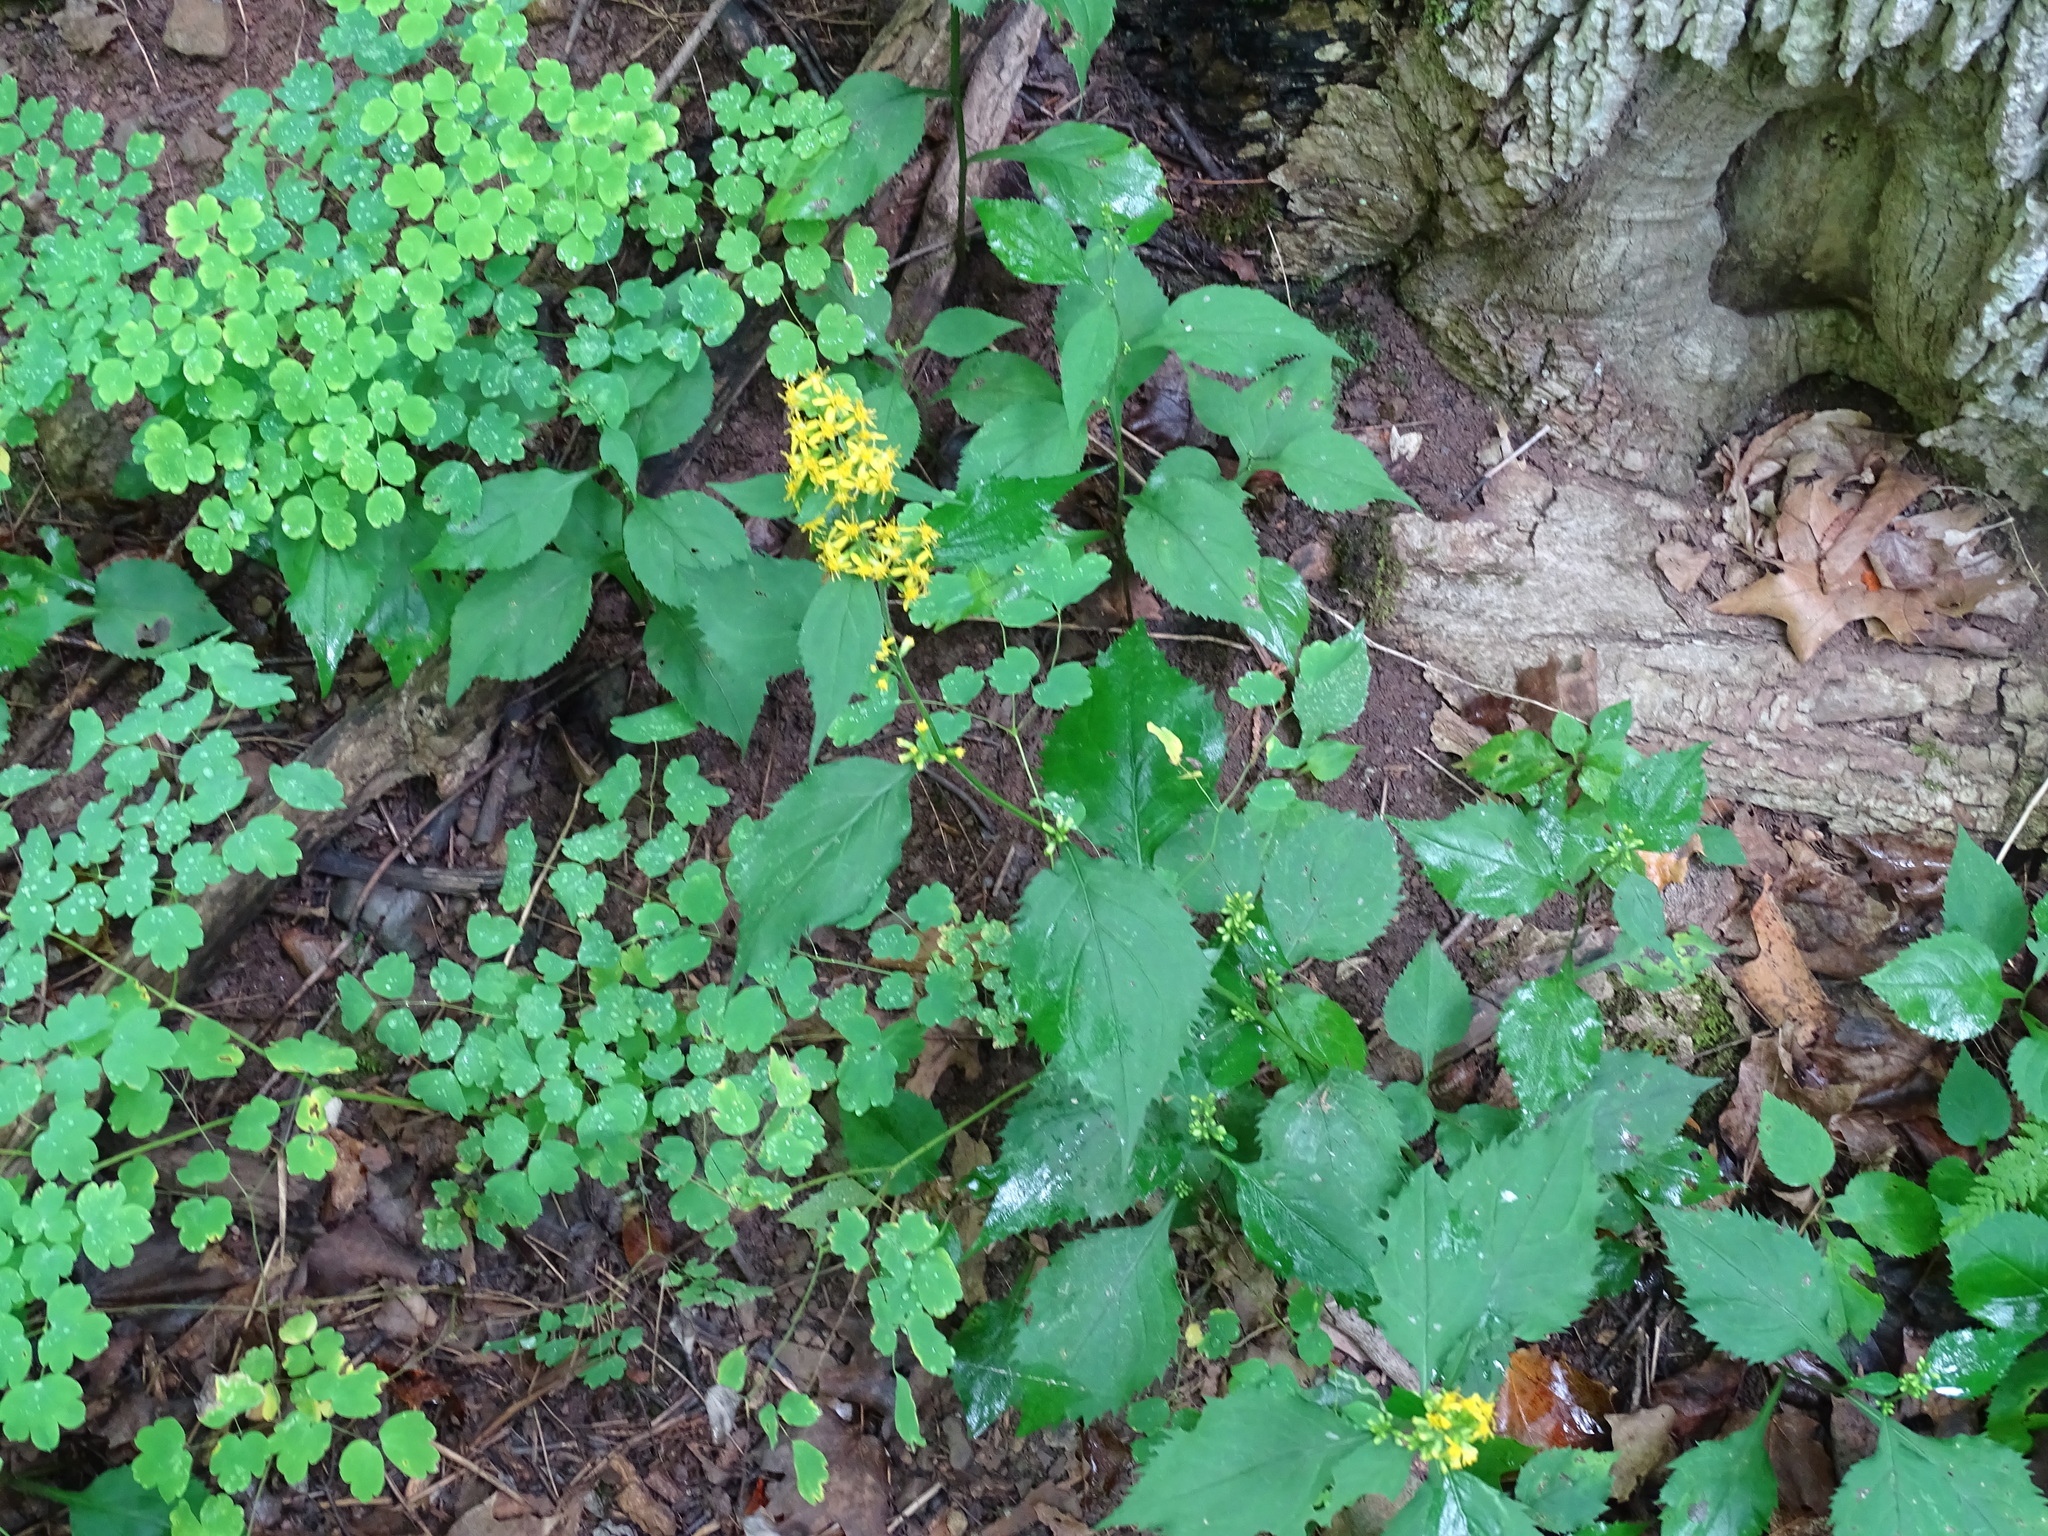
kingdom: Plantae
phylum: Tracheophyta
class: Magnoliopsida
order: Asterales
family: Asteraceae
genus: Solidago
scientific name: Solidago flexicaulis
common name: Zig-zag goldenrod
